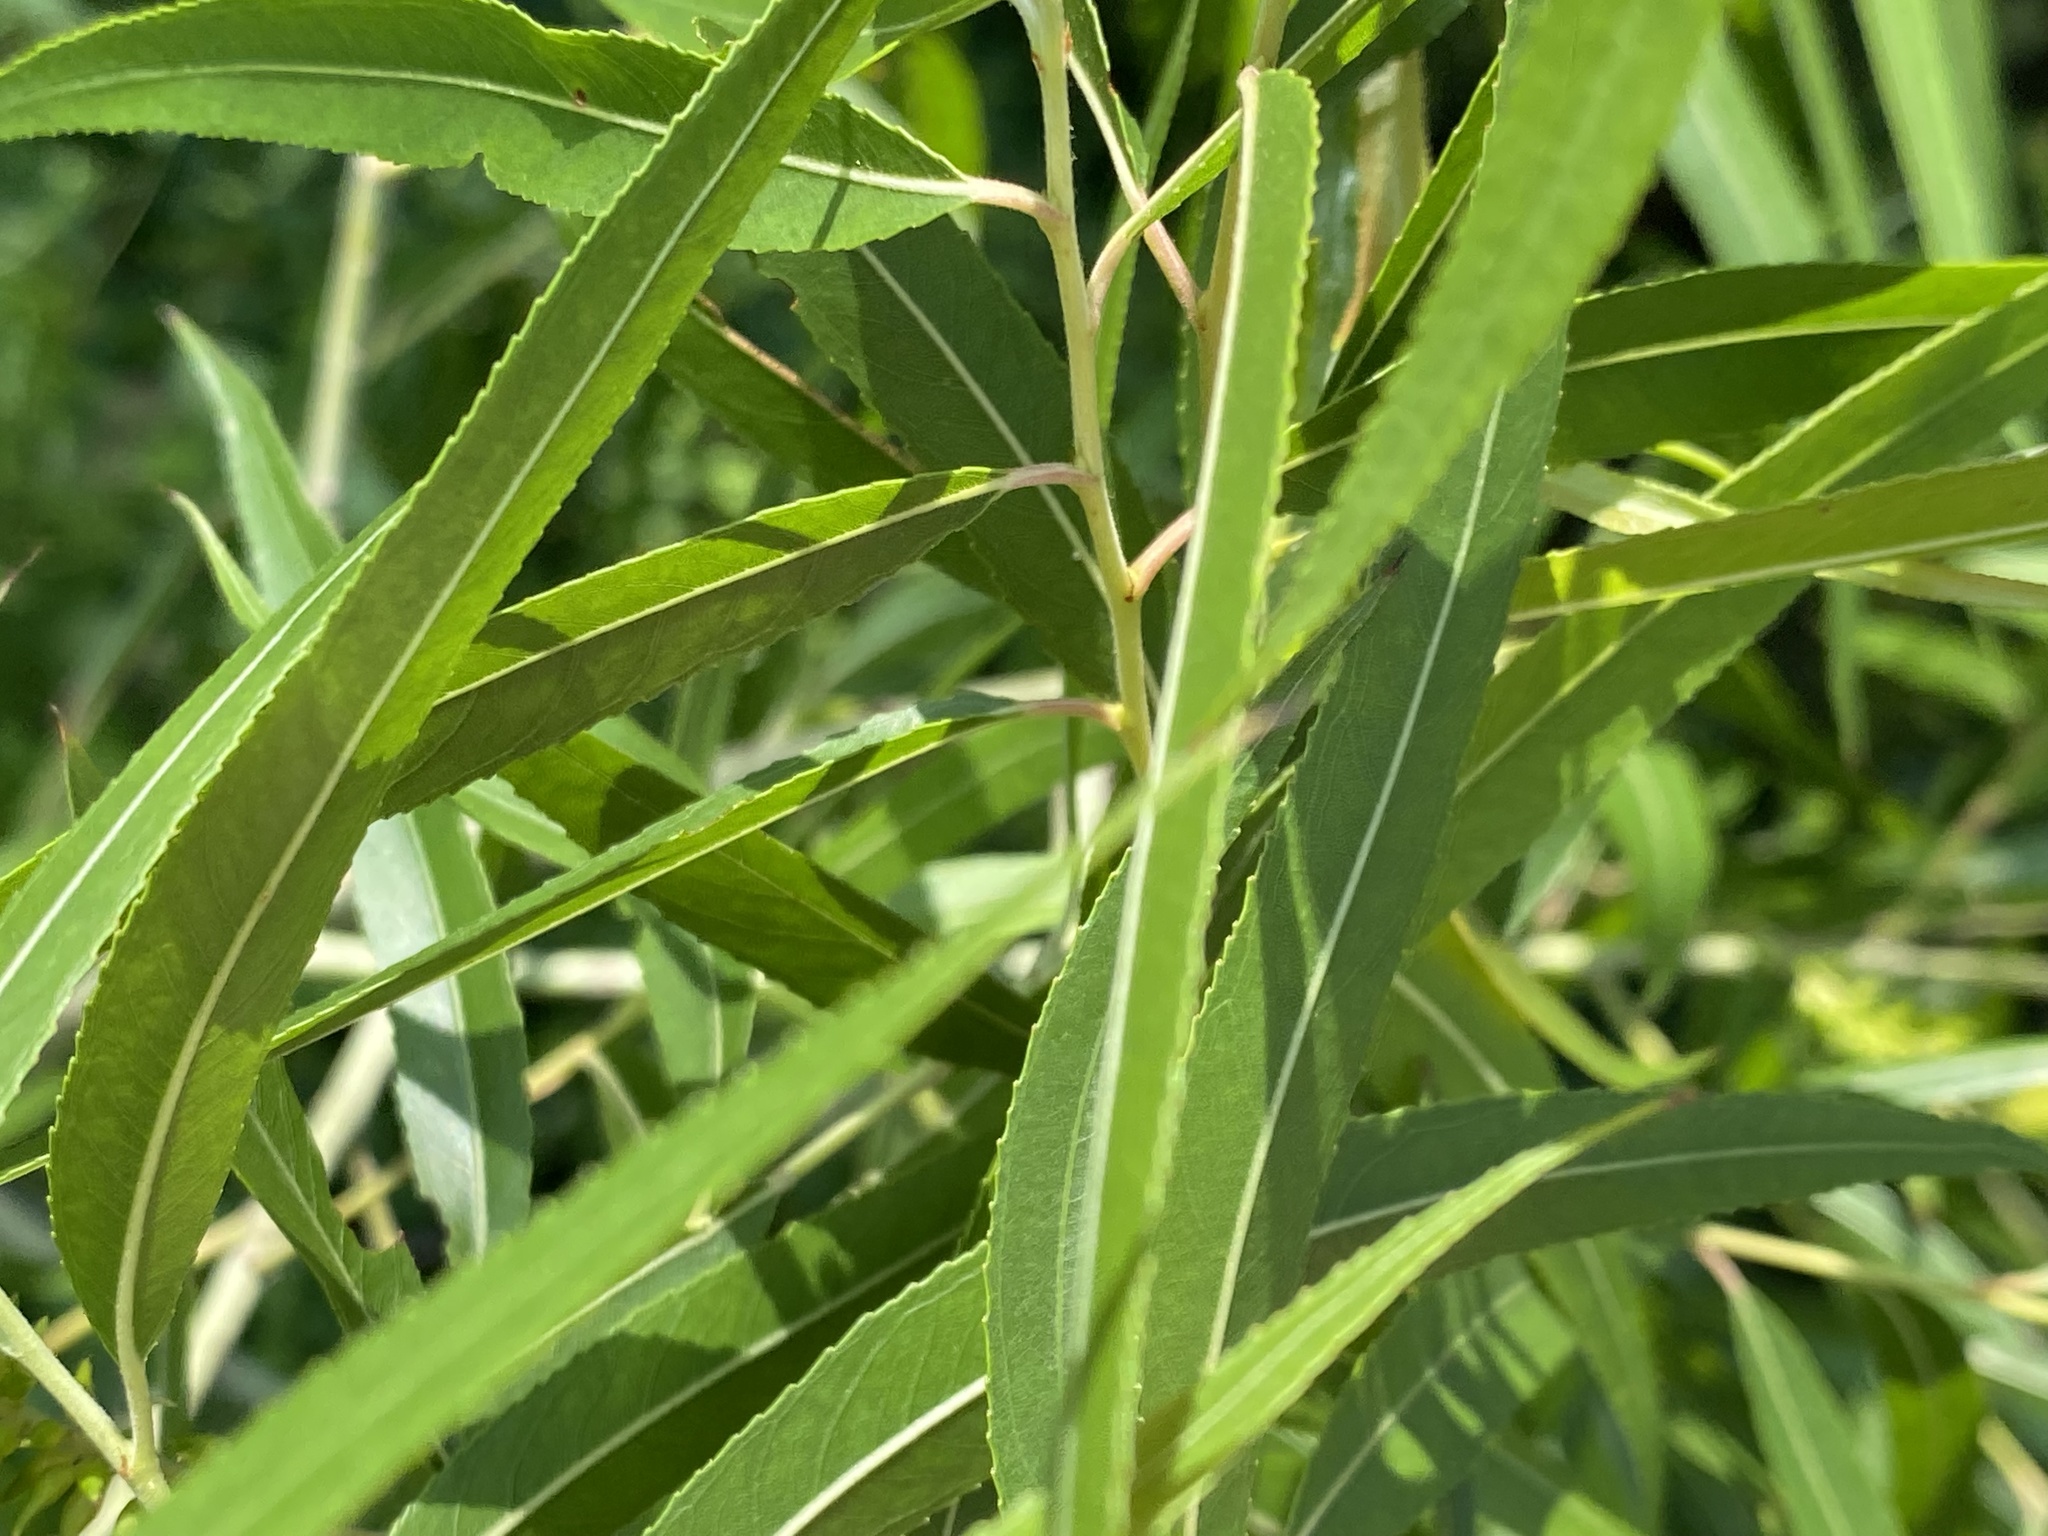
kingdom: Plantae
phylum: Tracheophyta
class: Magnoliopsida
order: Malpighiales
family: Salicaceae
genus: Salix
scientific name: Salix nigra
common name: Black willow
